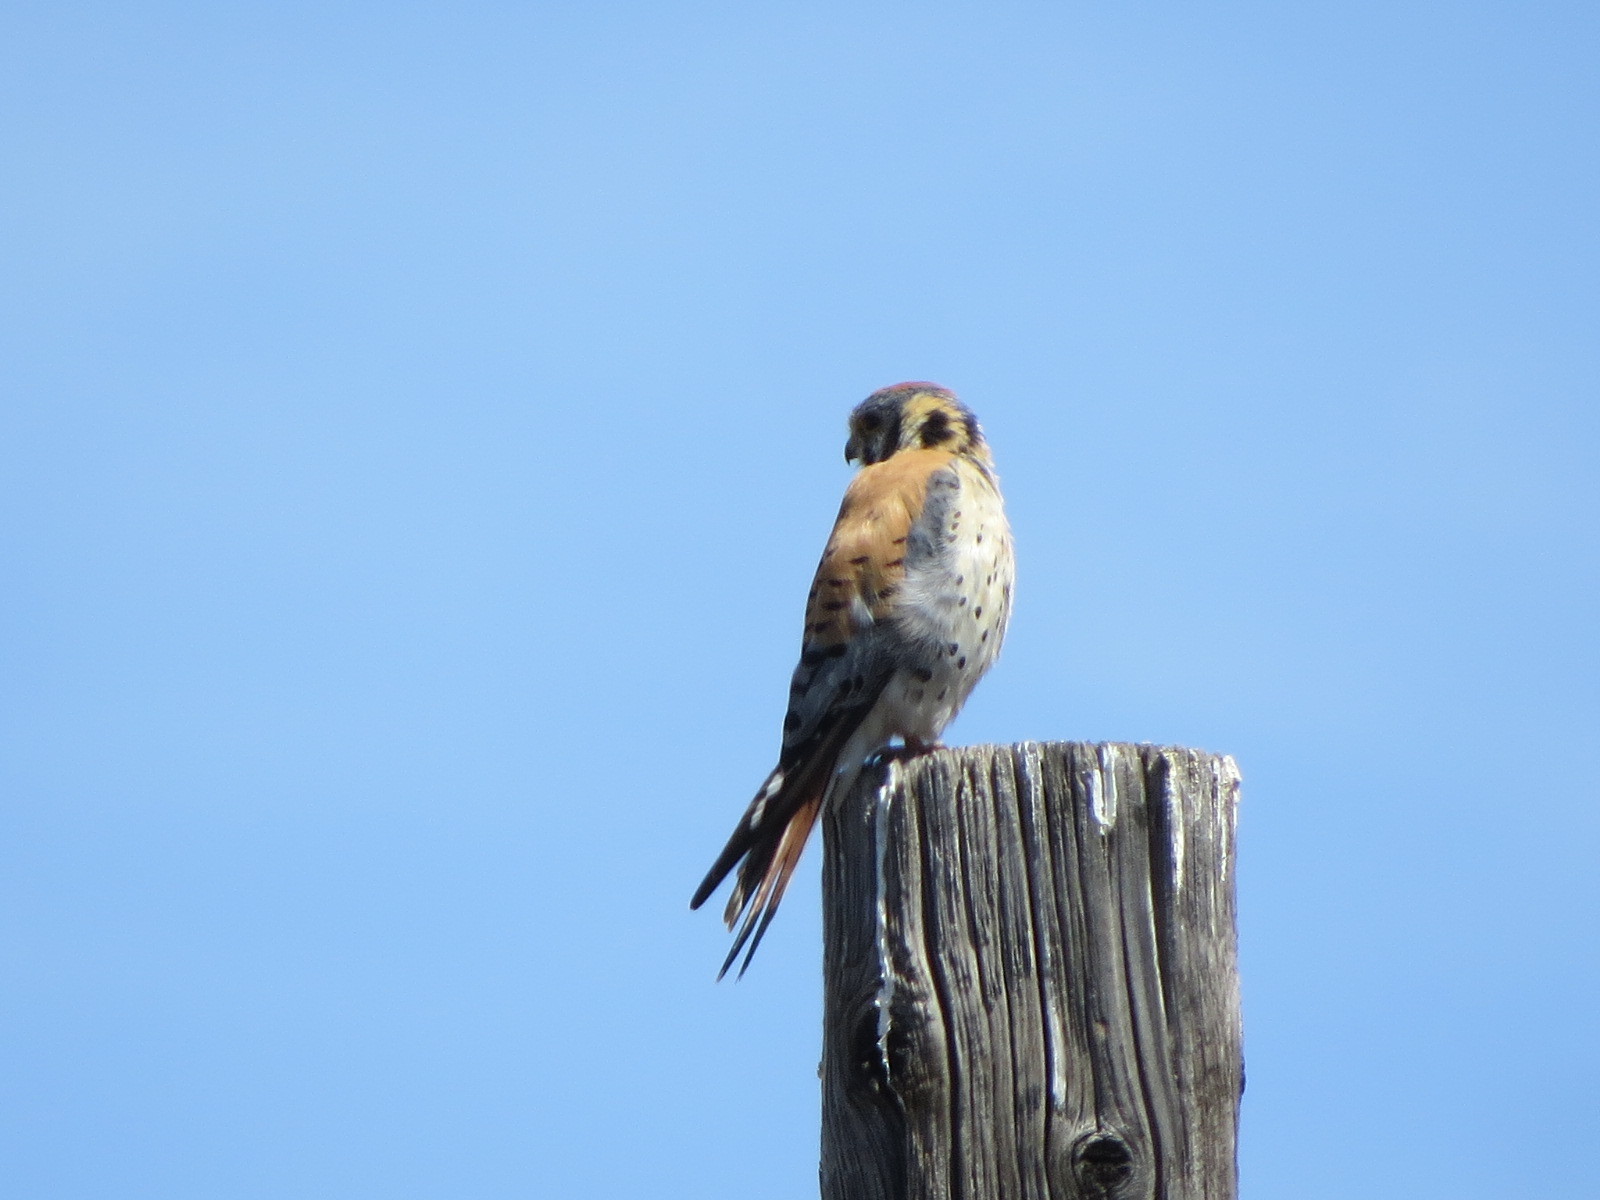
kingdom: Animalia
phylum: Chordata
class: Aves
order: Falconiformes
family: Falconidae
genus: Falco
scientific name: Falco sparverius
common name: American kestrel
